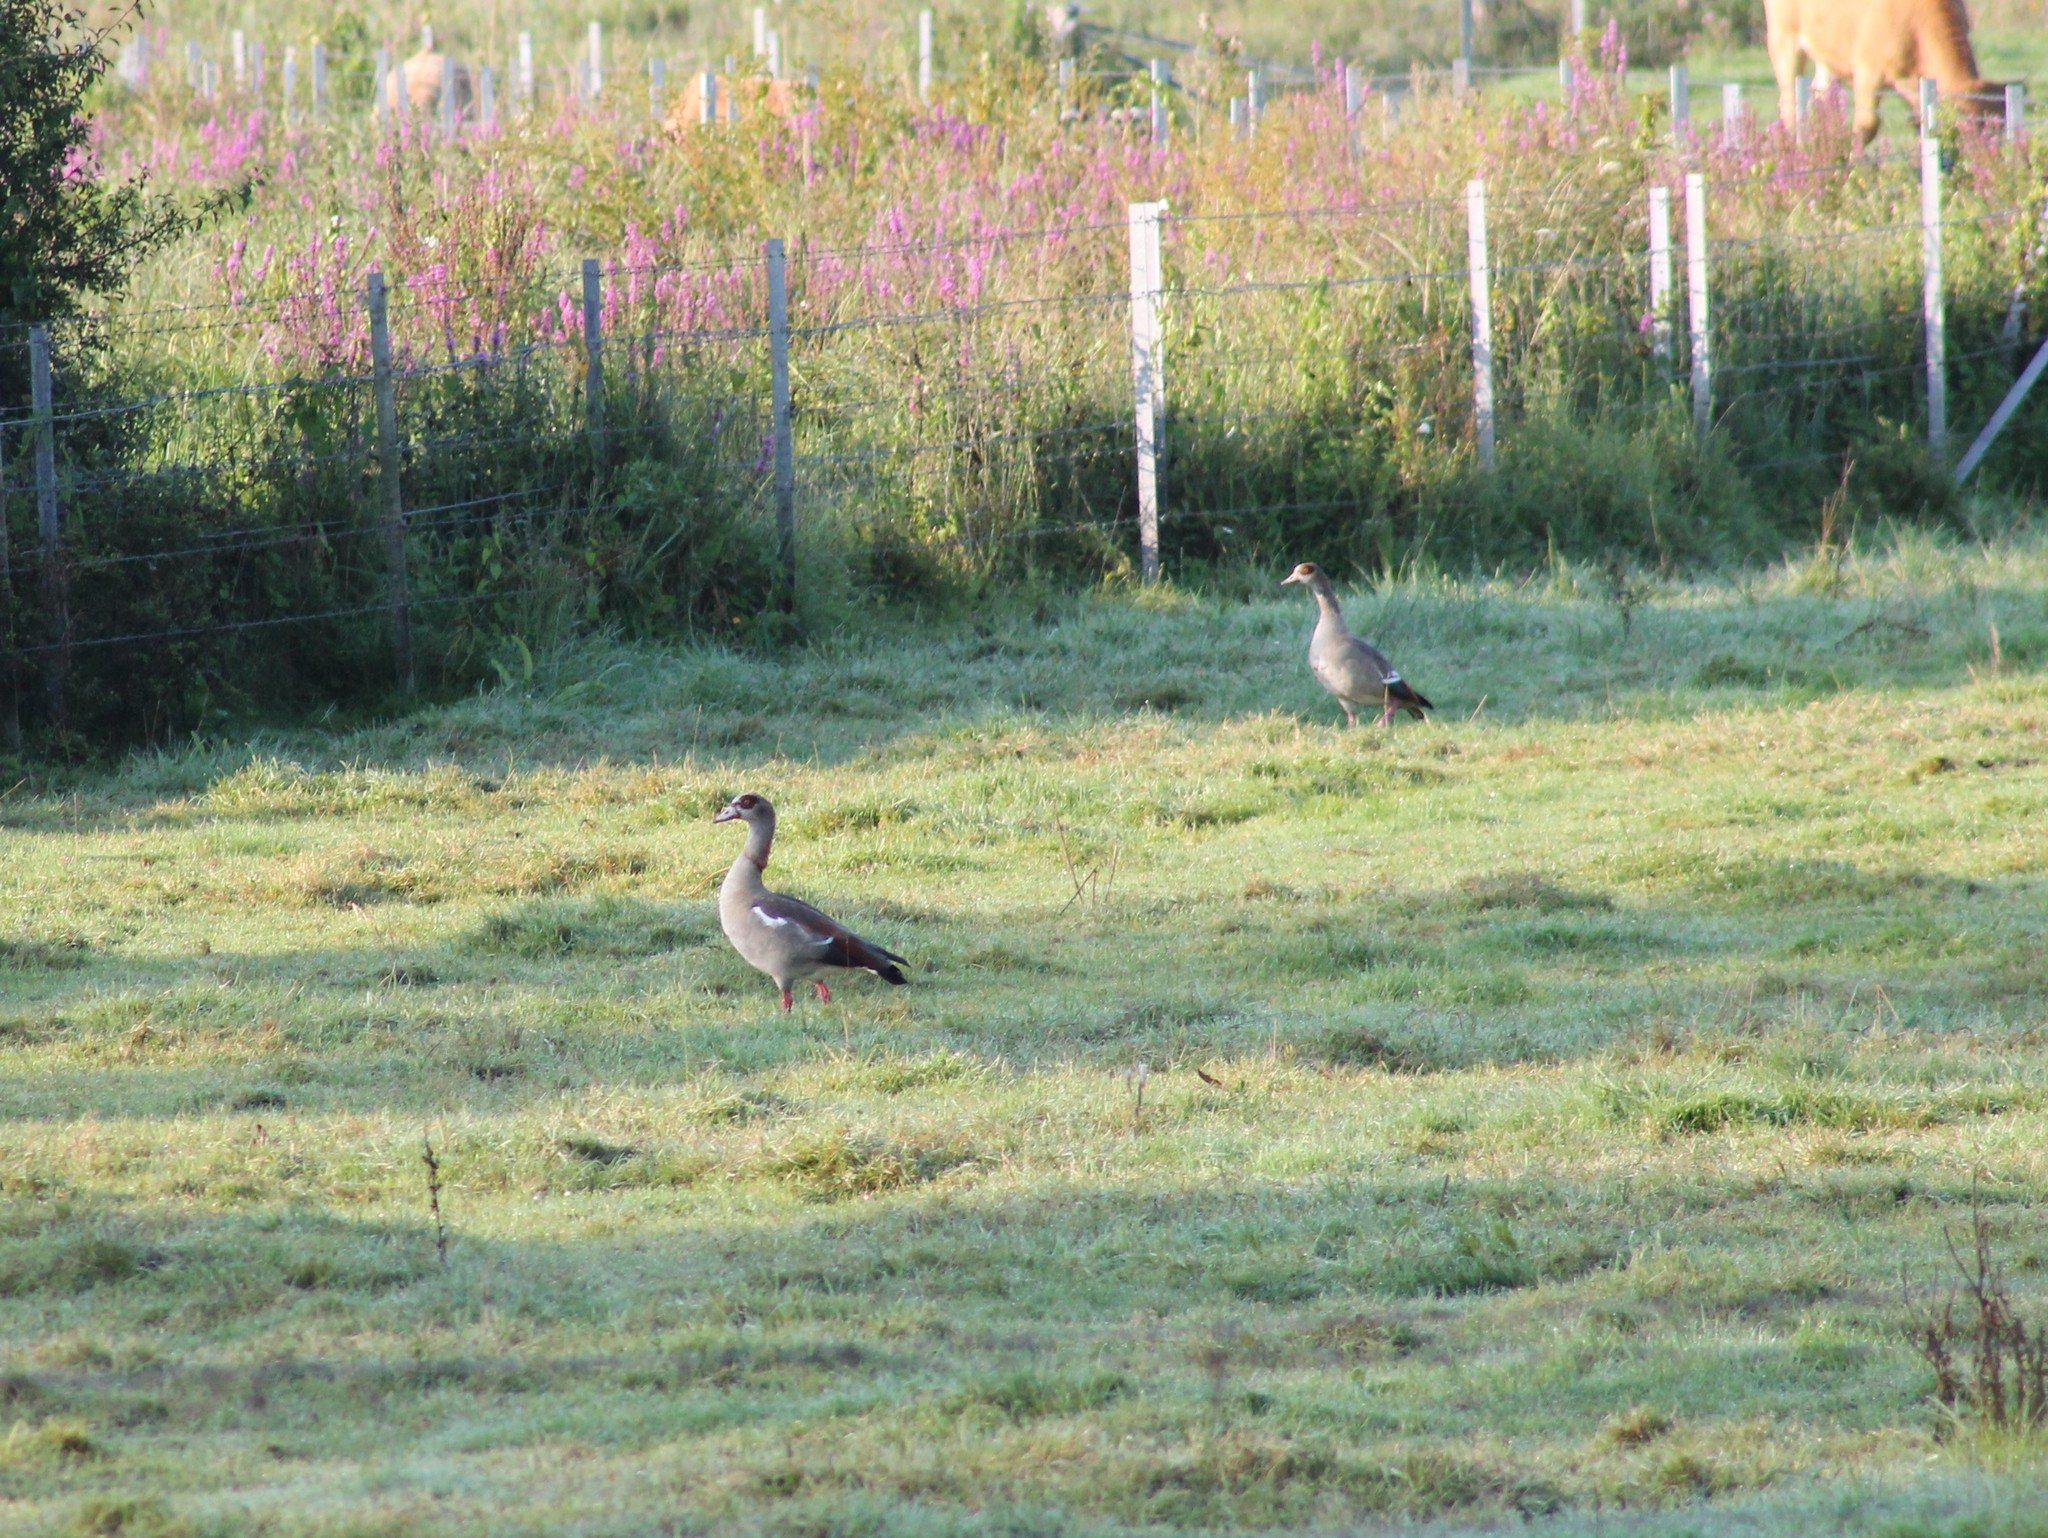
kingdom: Animalia
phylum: Chordata
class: Aves
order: Anseriformes
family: Anatidae
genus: Alopochen
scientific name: Alopochen aegyptiaca
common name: Egyptian goose
